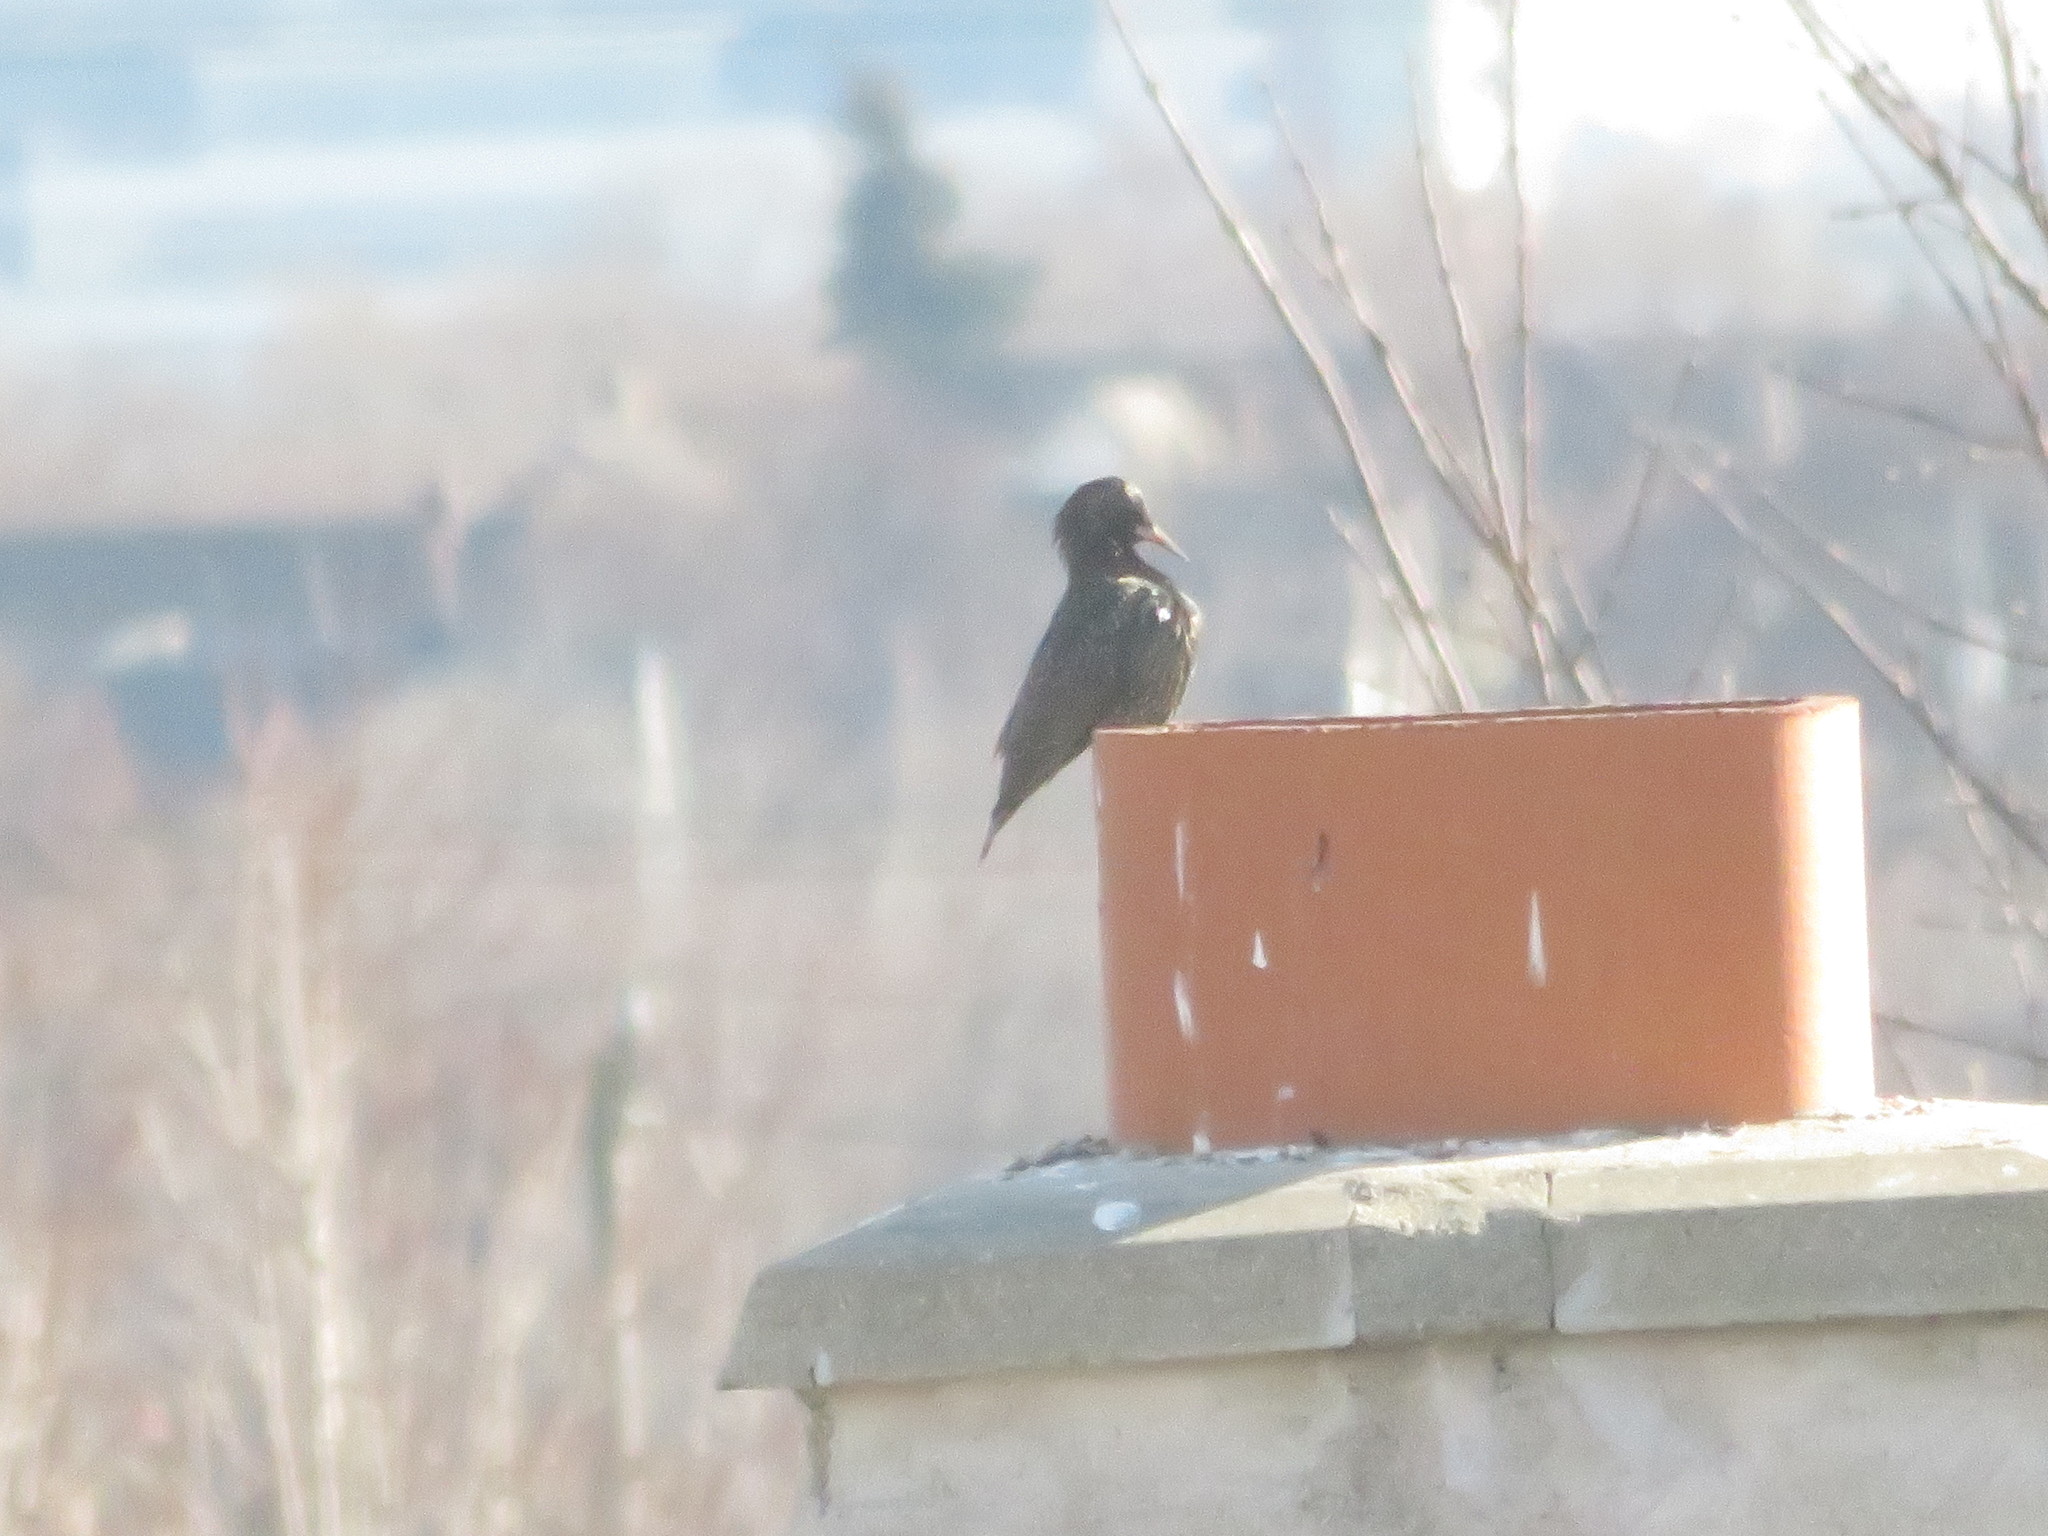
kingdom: Animalia
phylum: Chordata
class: Aves
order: Passeriformes
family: Sturnidae
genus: Sturnus
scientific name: Sturnus vulgaris
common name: Common starling
